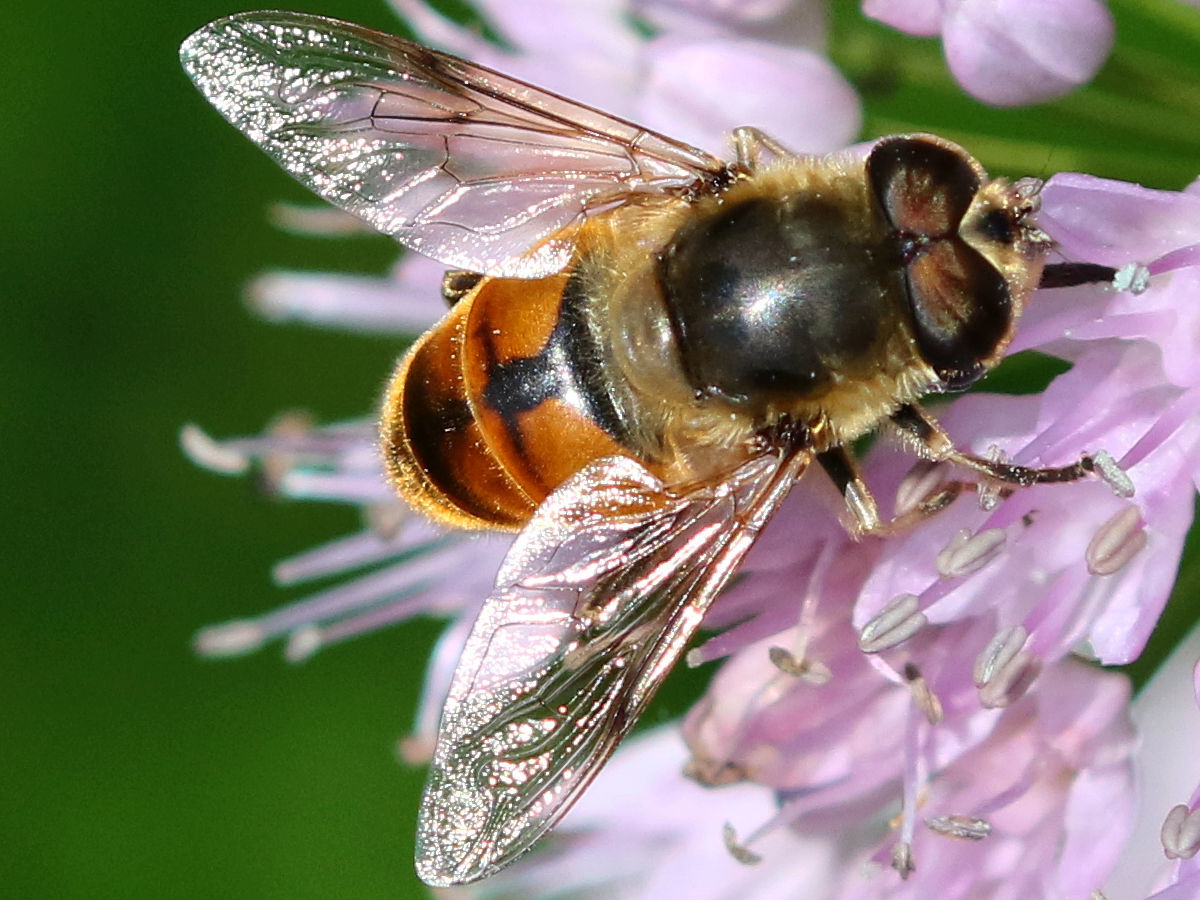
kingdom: Animalia
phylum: Arthropoda
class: Insecta
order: Diptera
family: Syrphidae
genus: Eristalis
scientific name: Eristalis tenax
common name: Drone fly
